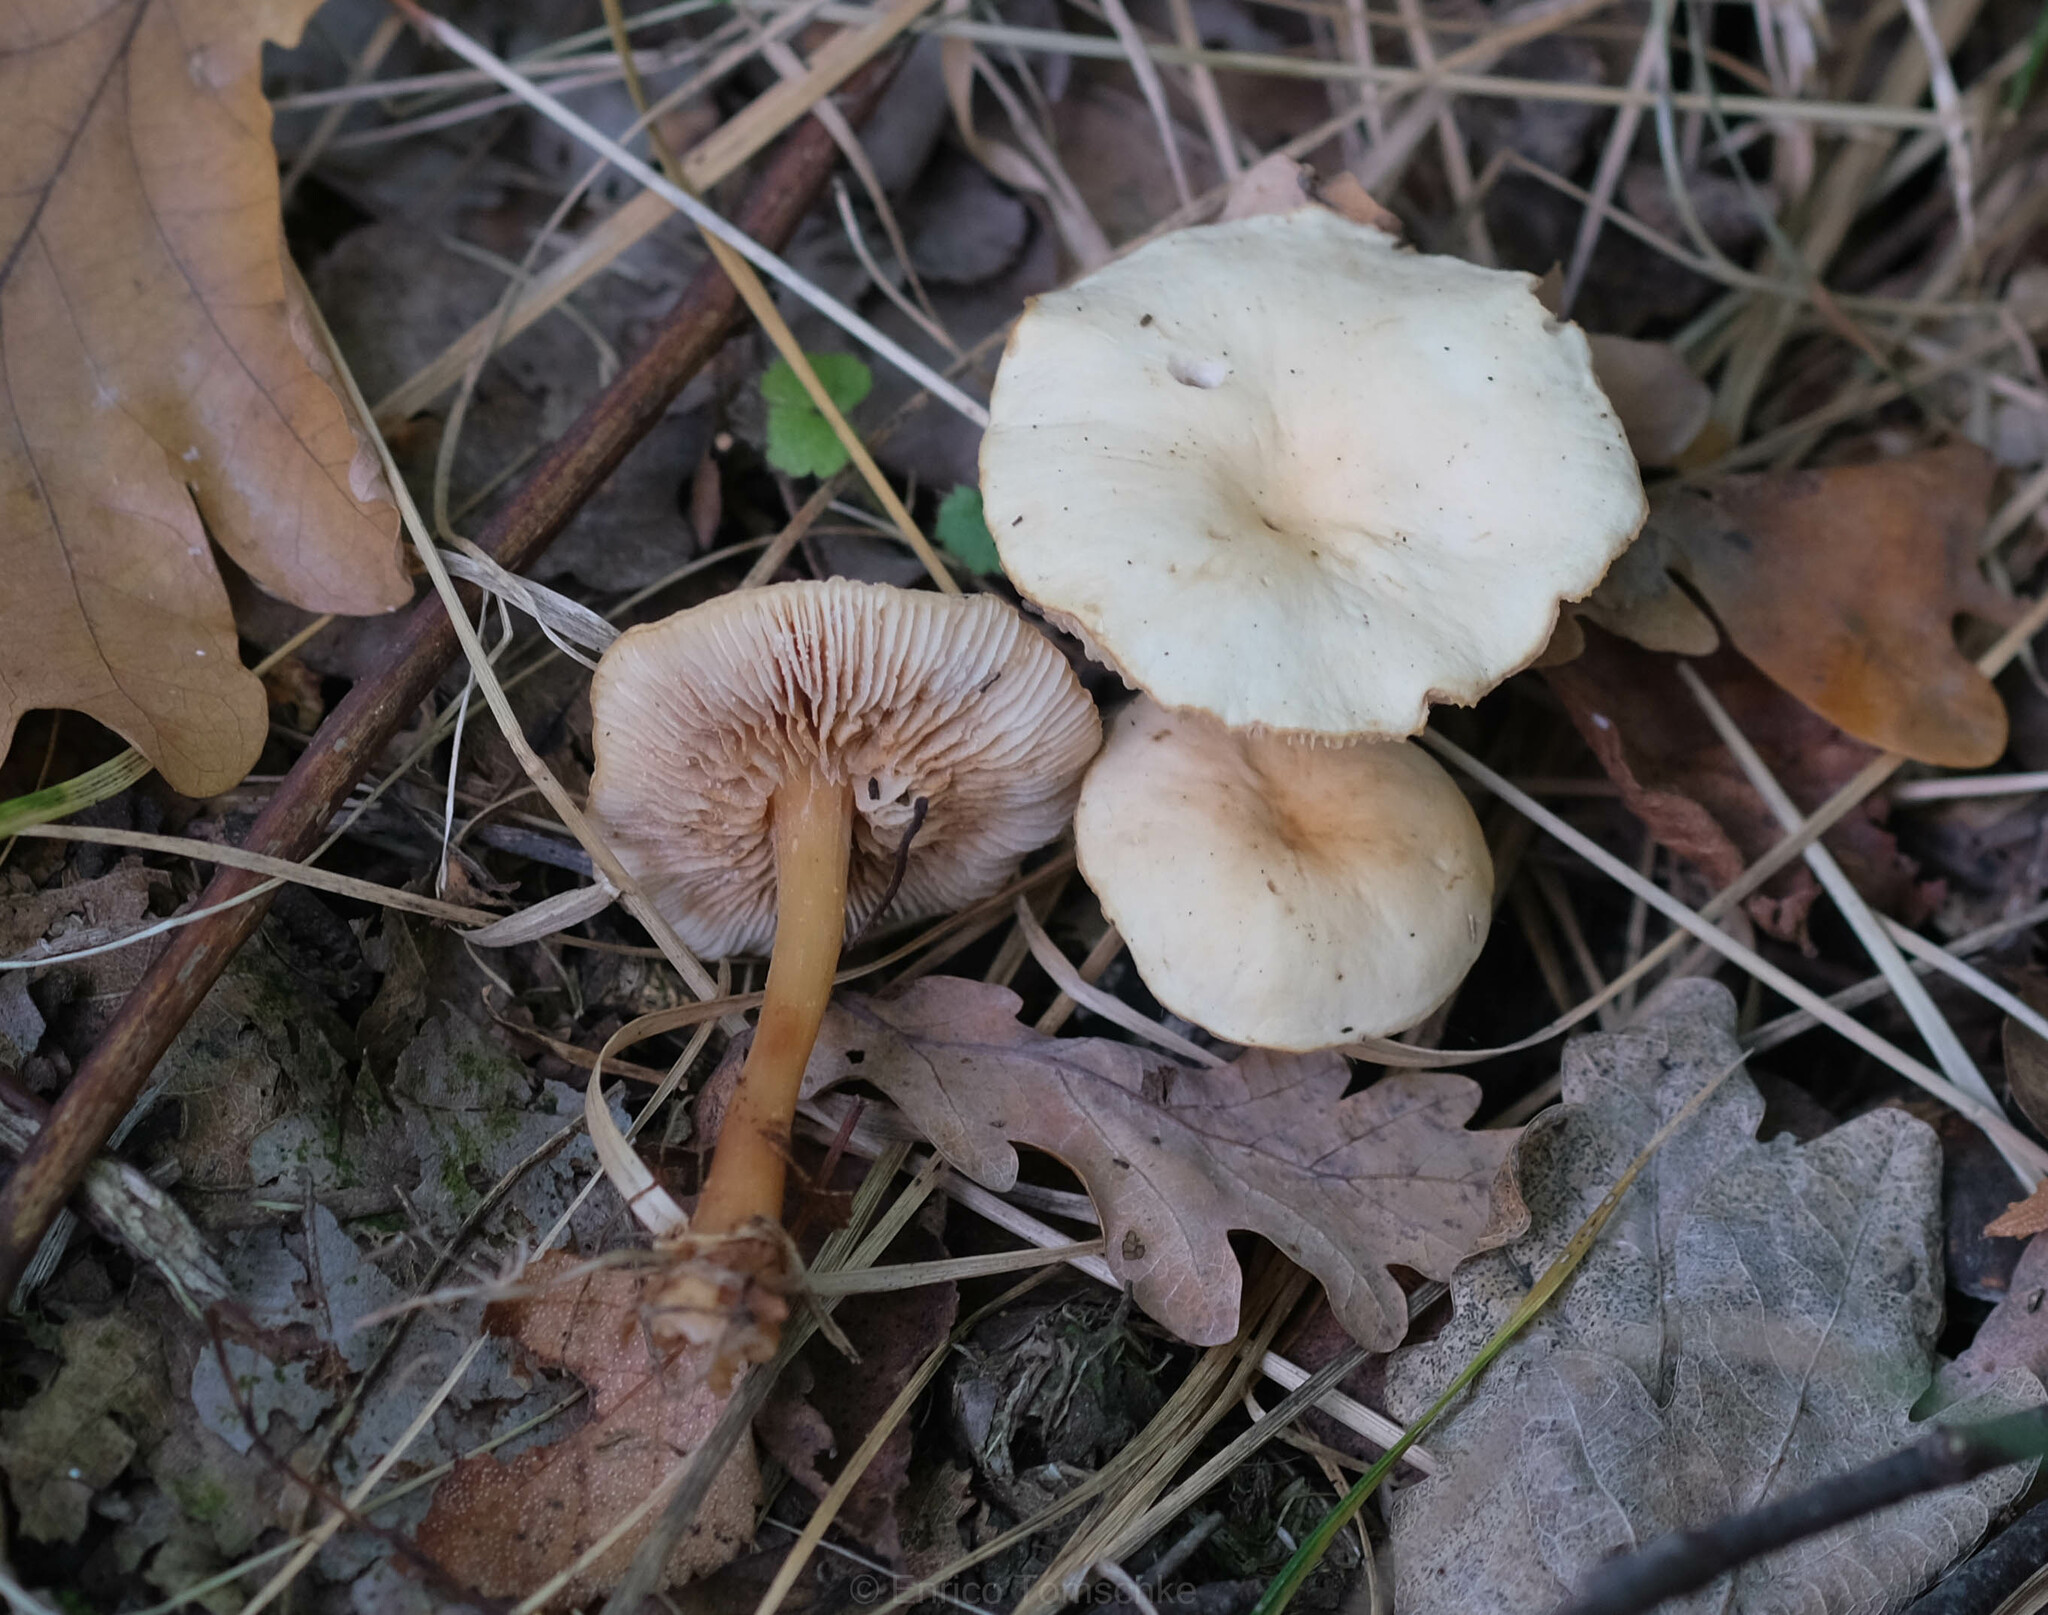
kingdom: Fungi
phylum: Basidiomycota
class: Agaricomycetes
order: Agaricales
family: Omphalotaceae
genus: Gymnopus
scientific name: Gymnopus dryophilus
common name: Penny top
